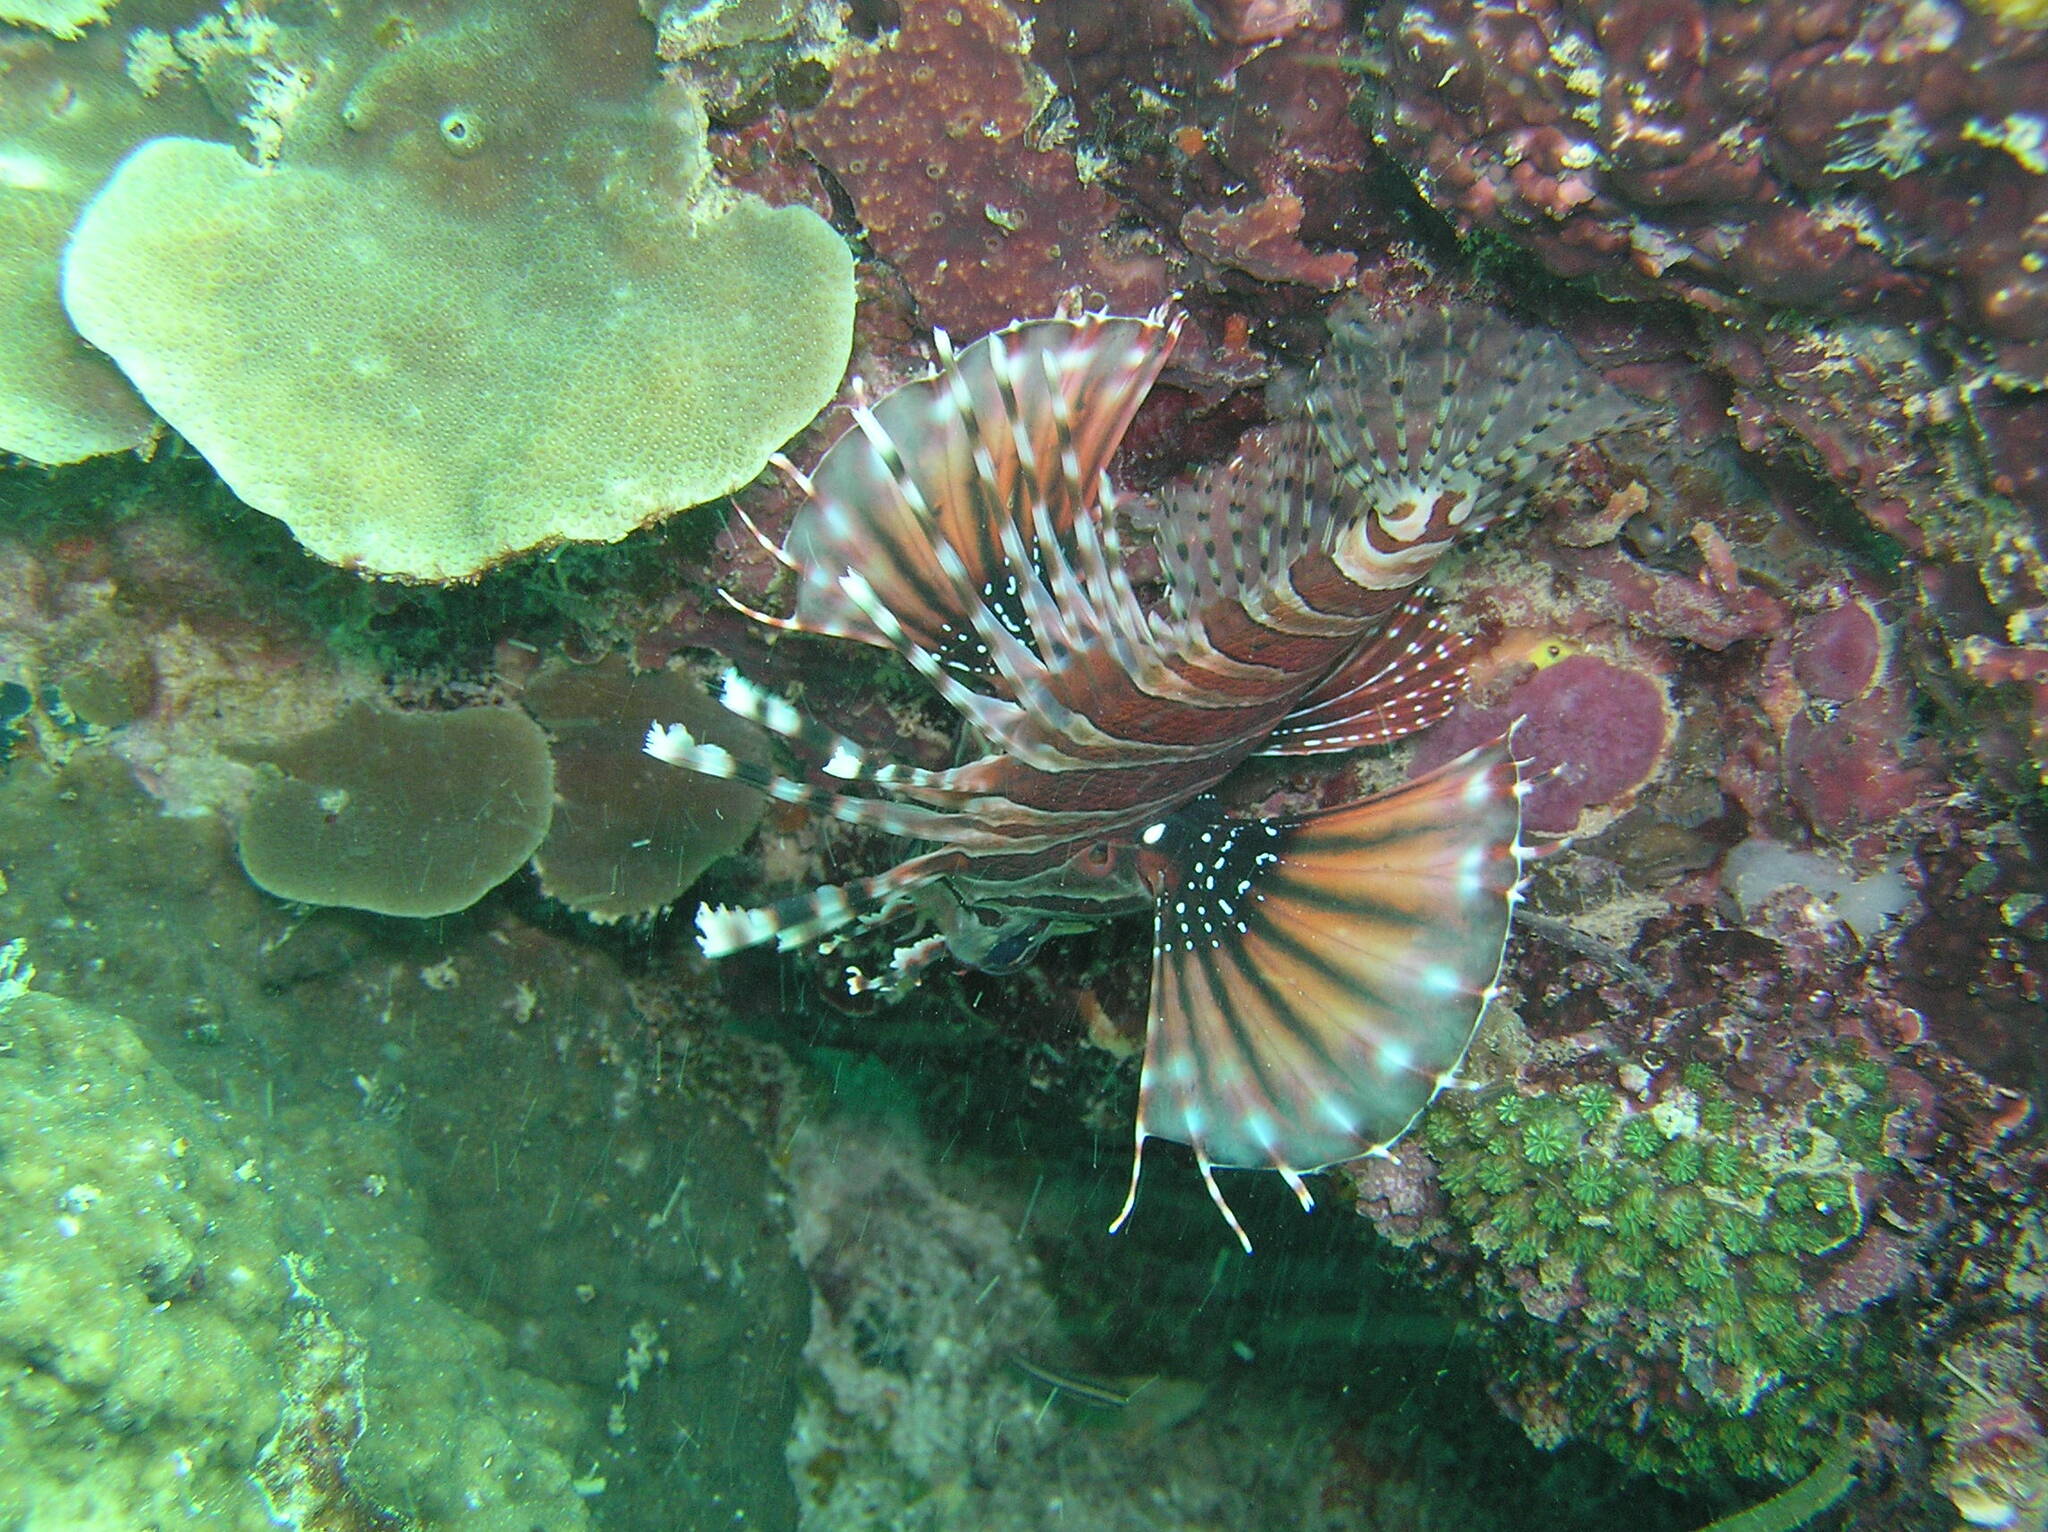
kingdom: Animalia
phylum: Chordata
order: Scorpaeniformes
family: Scorpaenidae
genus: Dendrochirus
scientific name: Dendrochirus zebra
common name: Zebra lionfish
